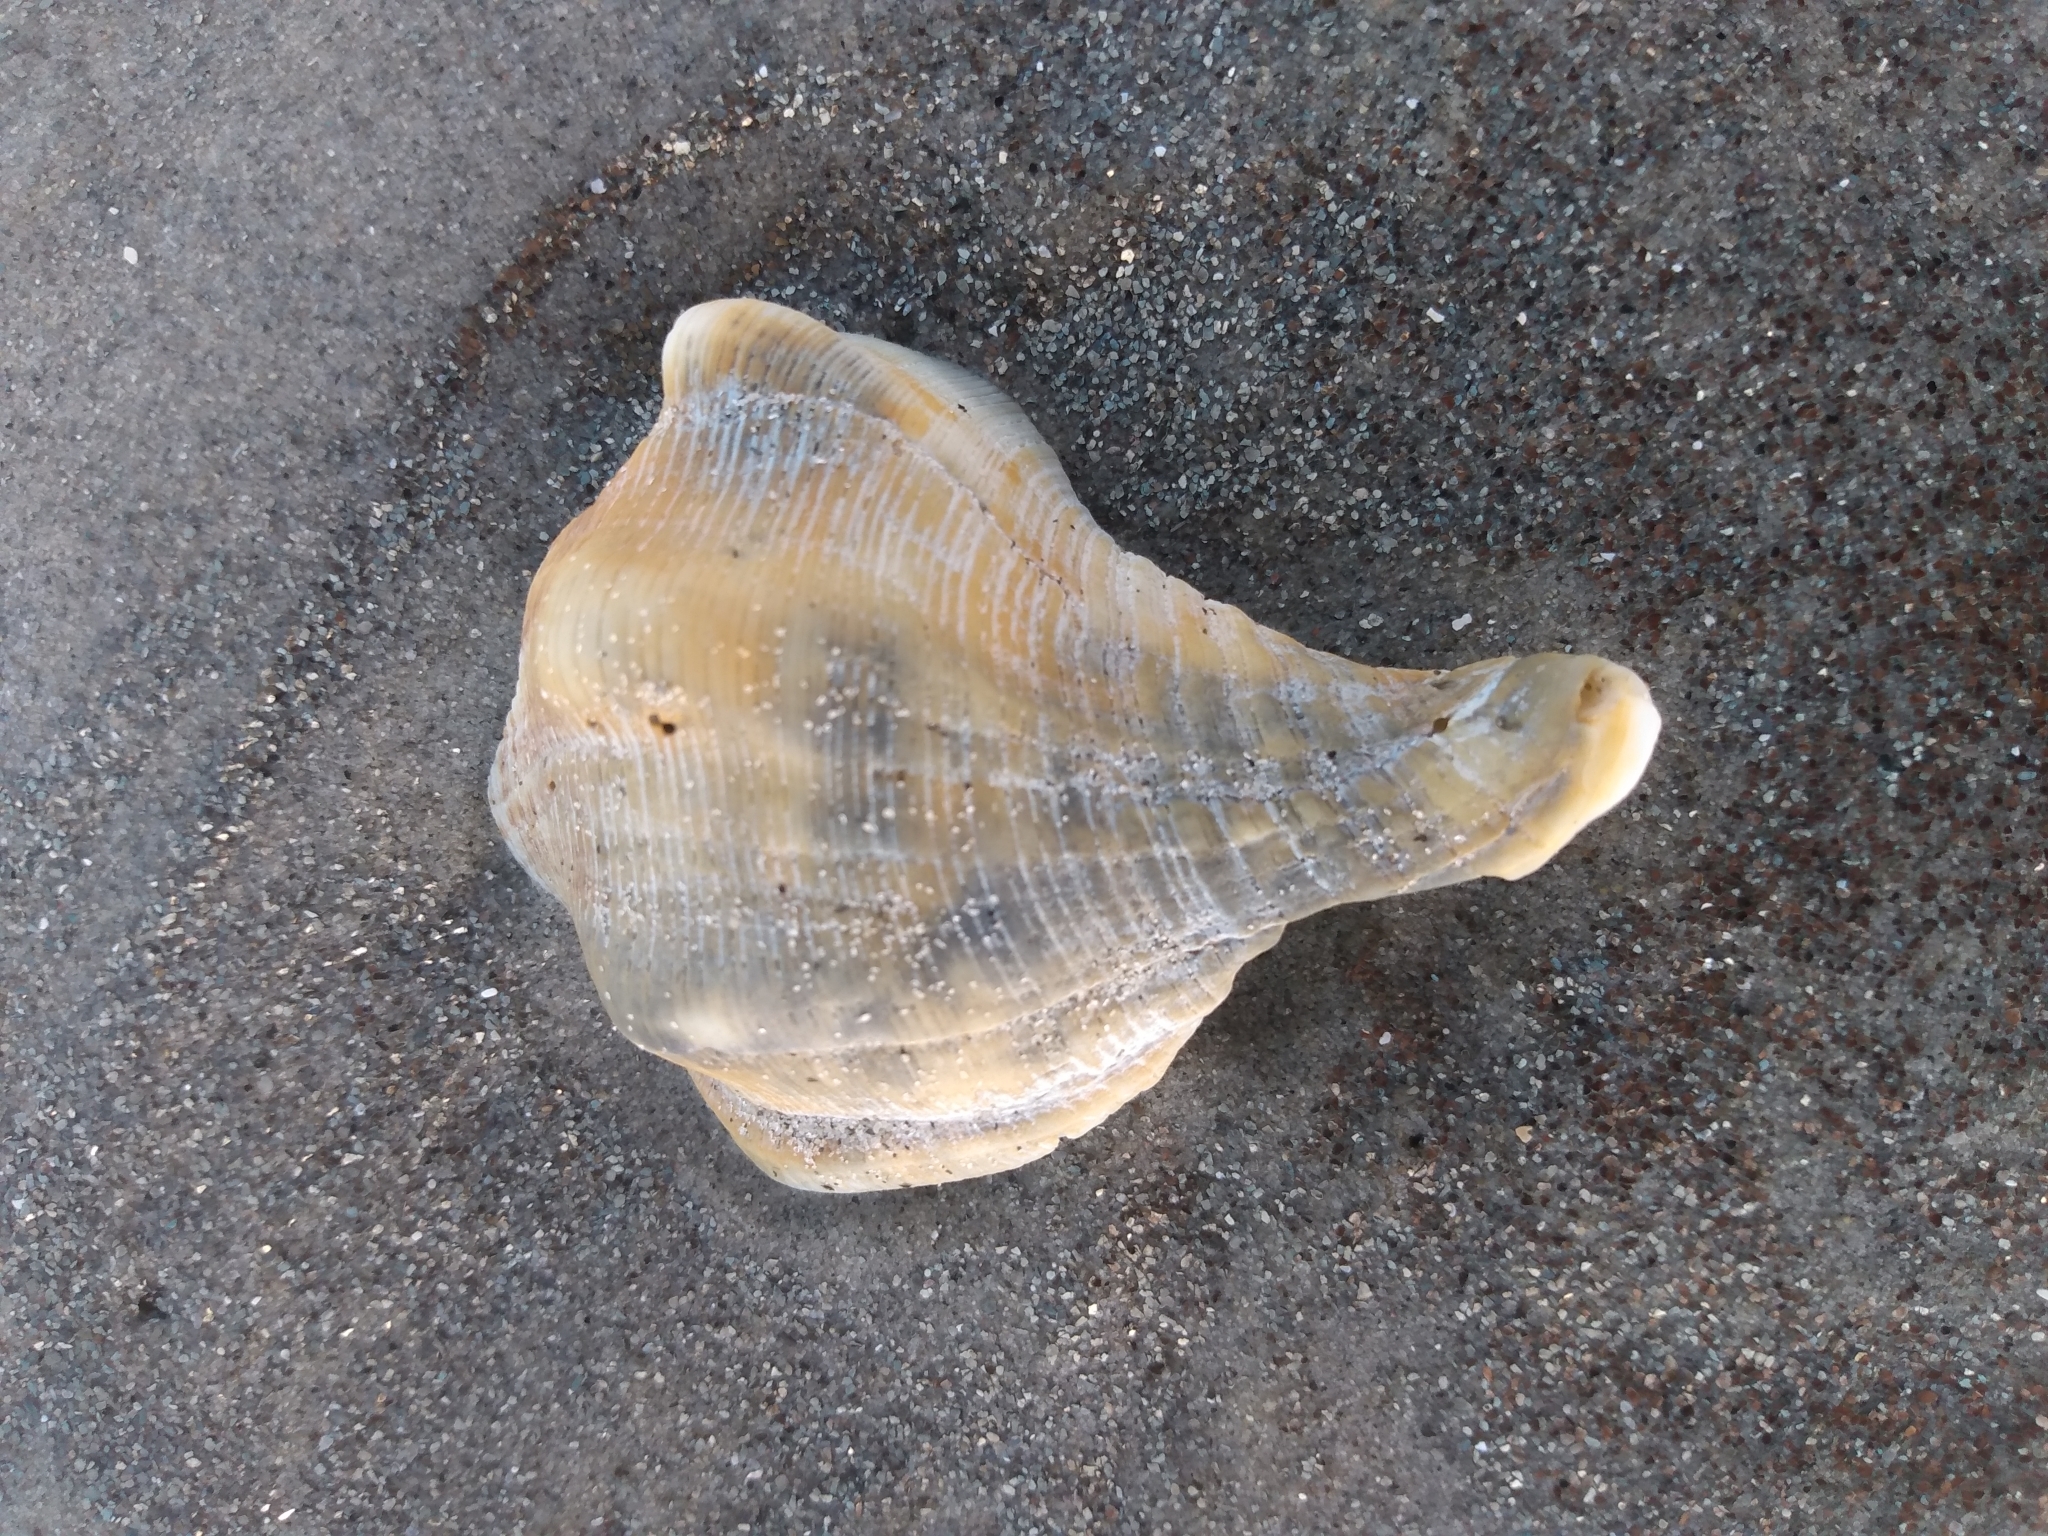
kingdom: Animalia
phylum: Mollusca
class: Gastropoda
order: Neogastropoda
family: Austrosiphonidae
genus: Kelletia
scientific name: Kelletia kelletii
